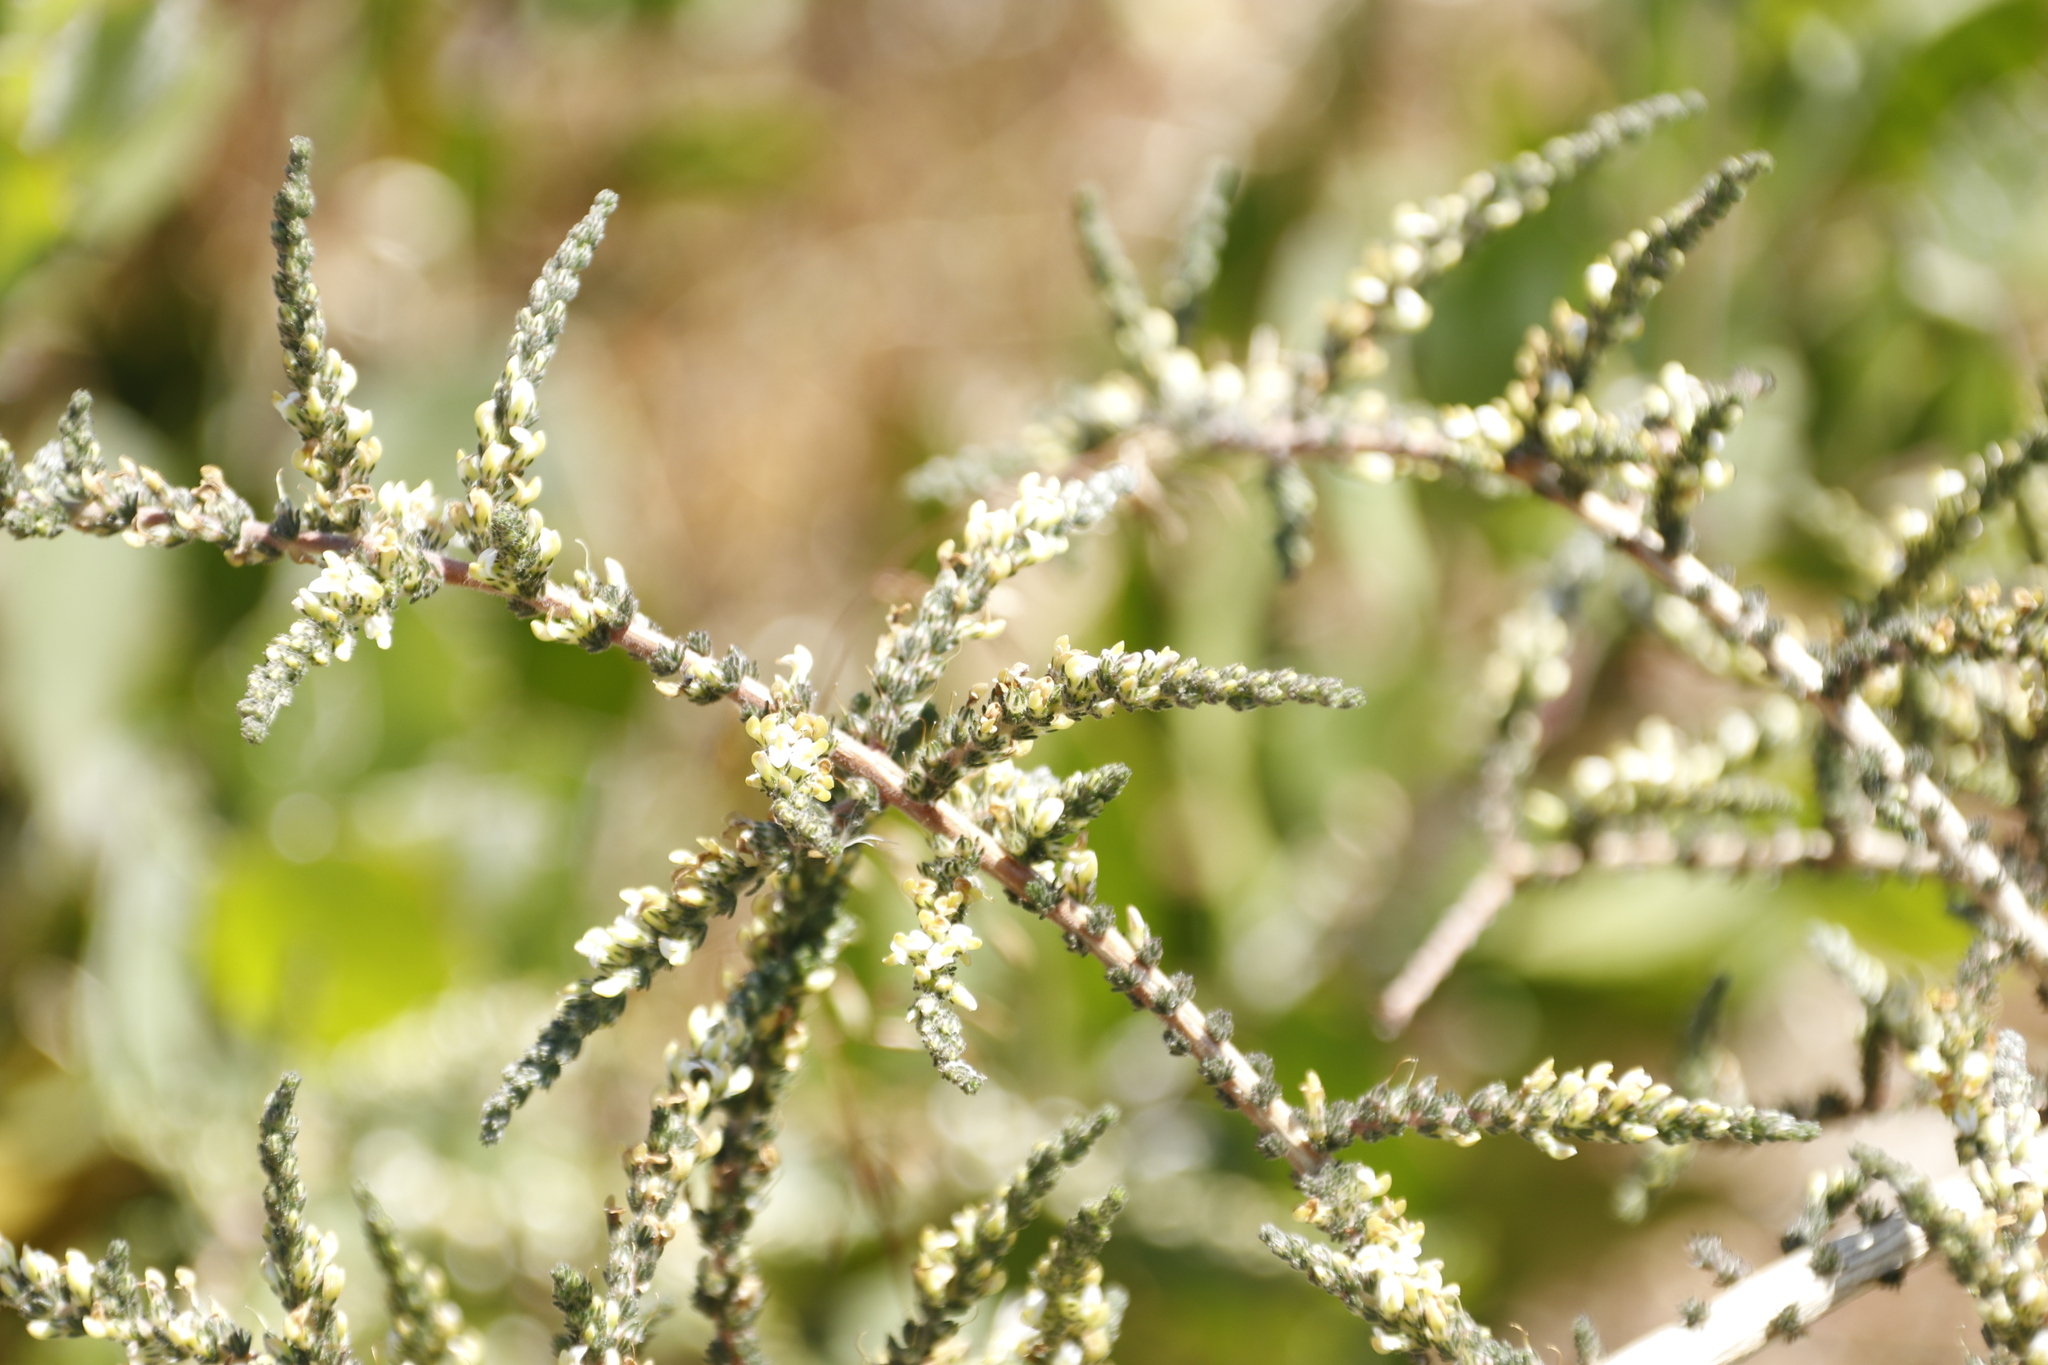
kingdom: Plantae
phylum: Tracheophyta
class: Magnoliopsida
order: Fabales
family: Fabaceae
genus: Aspalathus
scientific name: Aspalathus hispida
